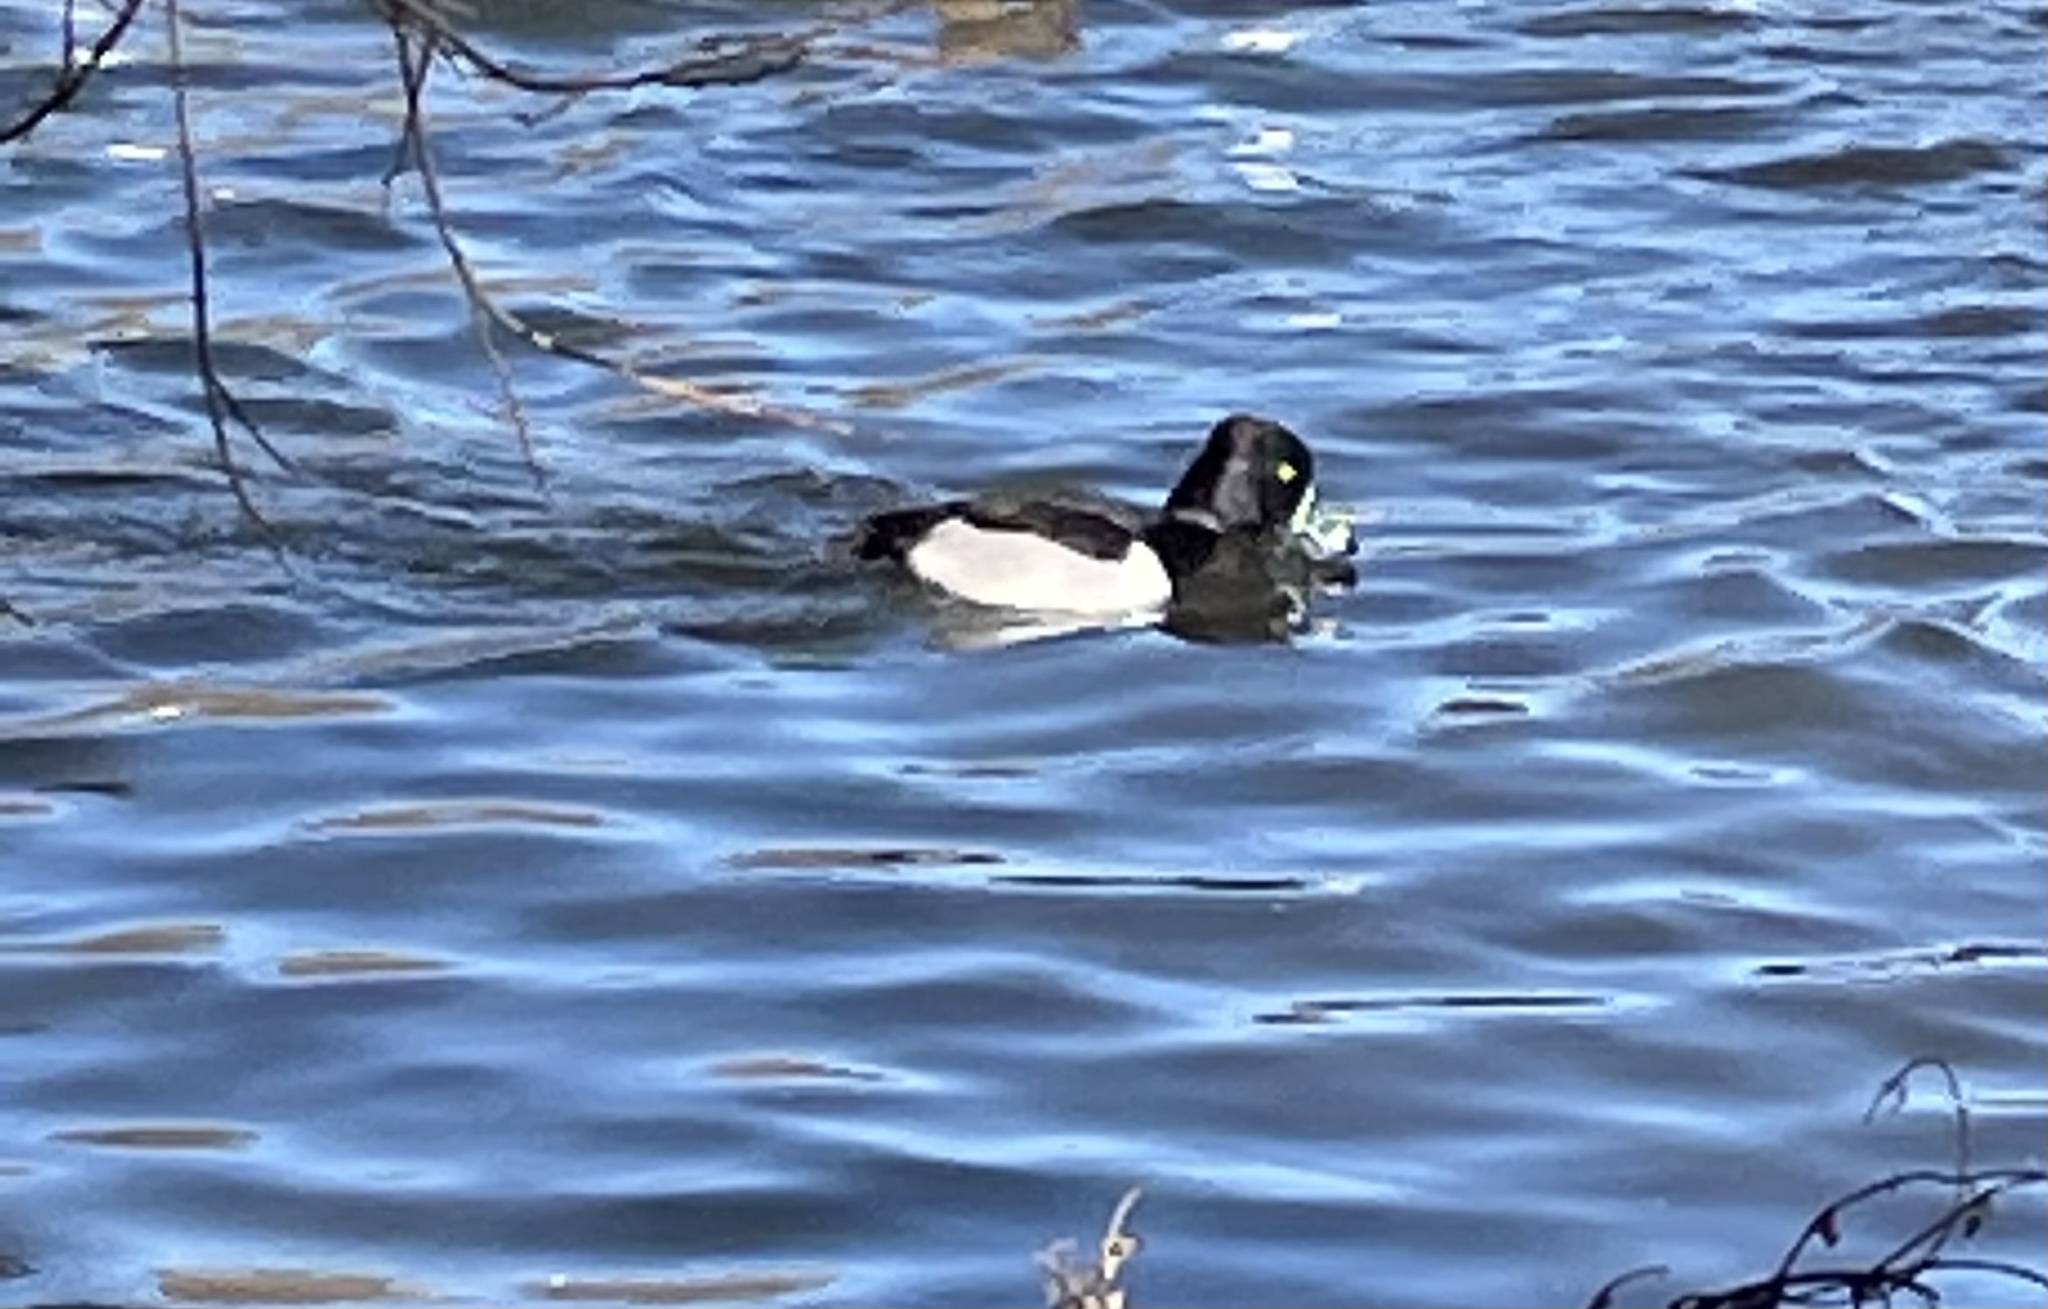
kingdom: Animalia
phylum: Chordata
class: Aves
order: Anseriformes
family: Anatidae
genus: Aythya
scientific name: Aythya collaris
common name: Ring-necked duck
